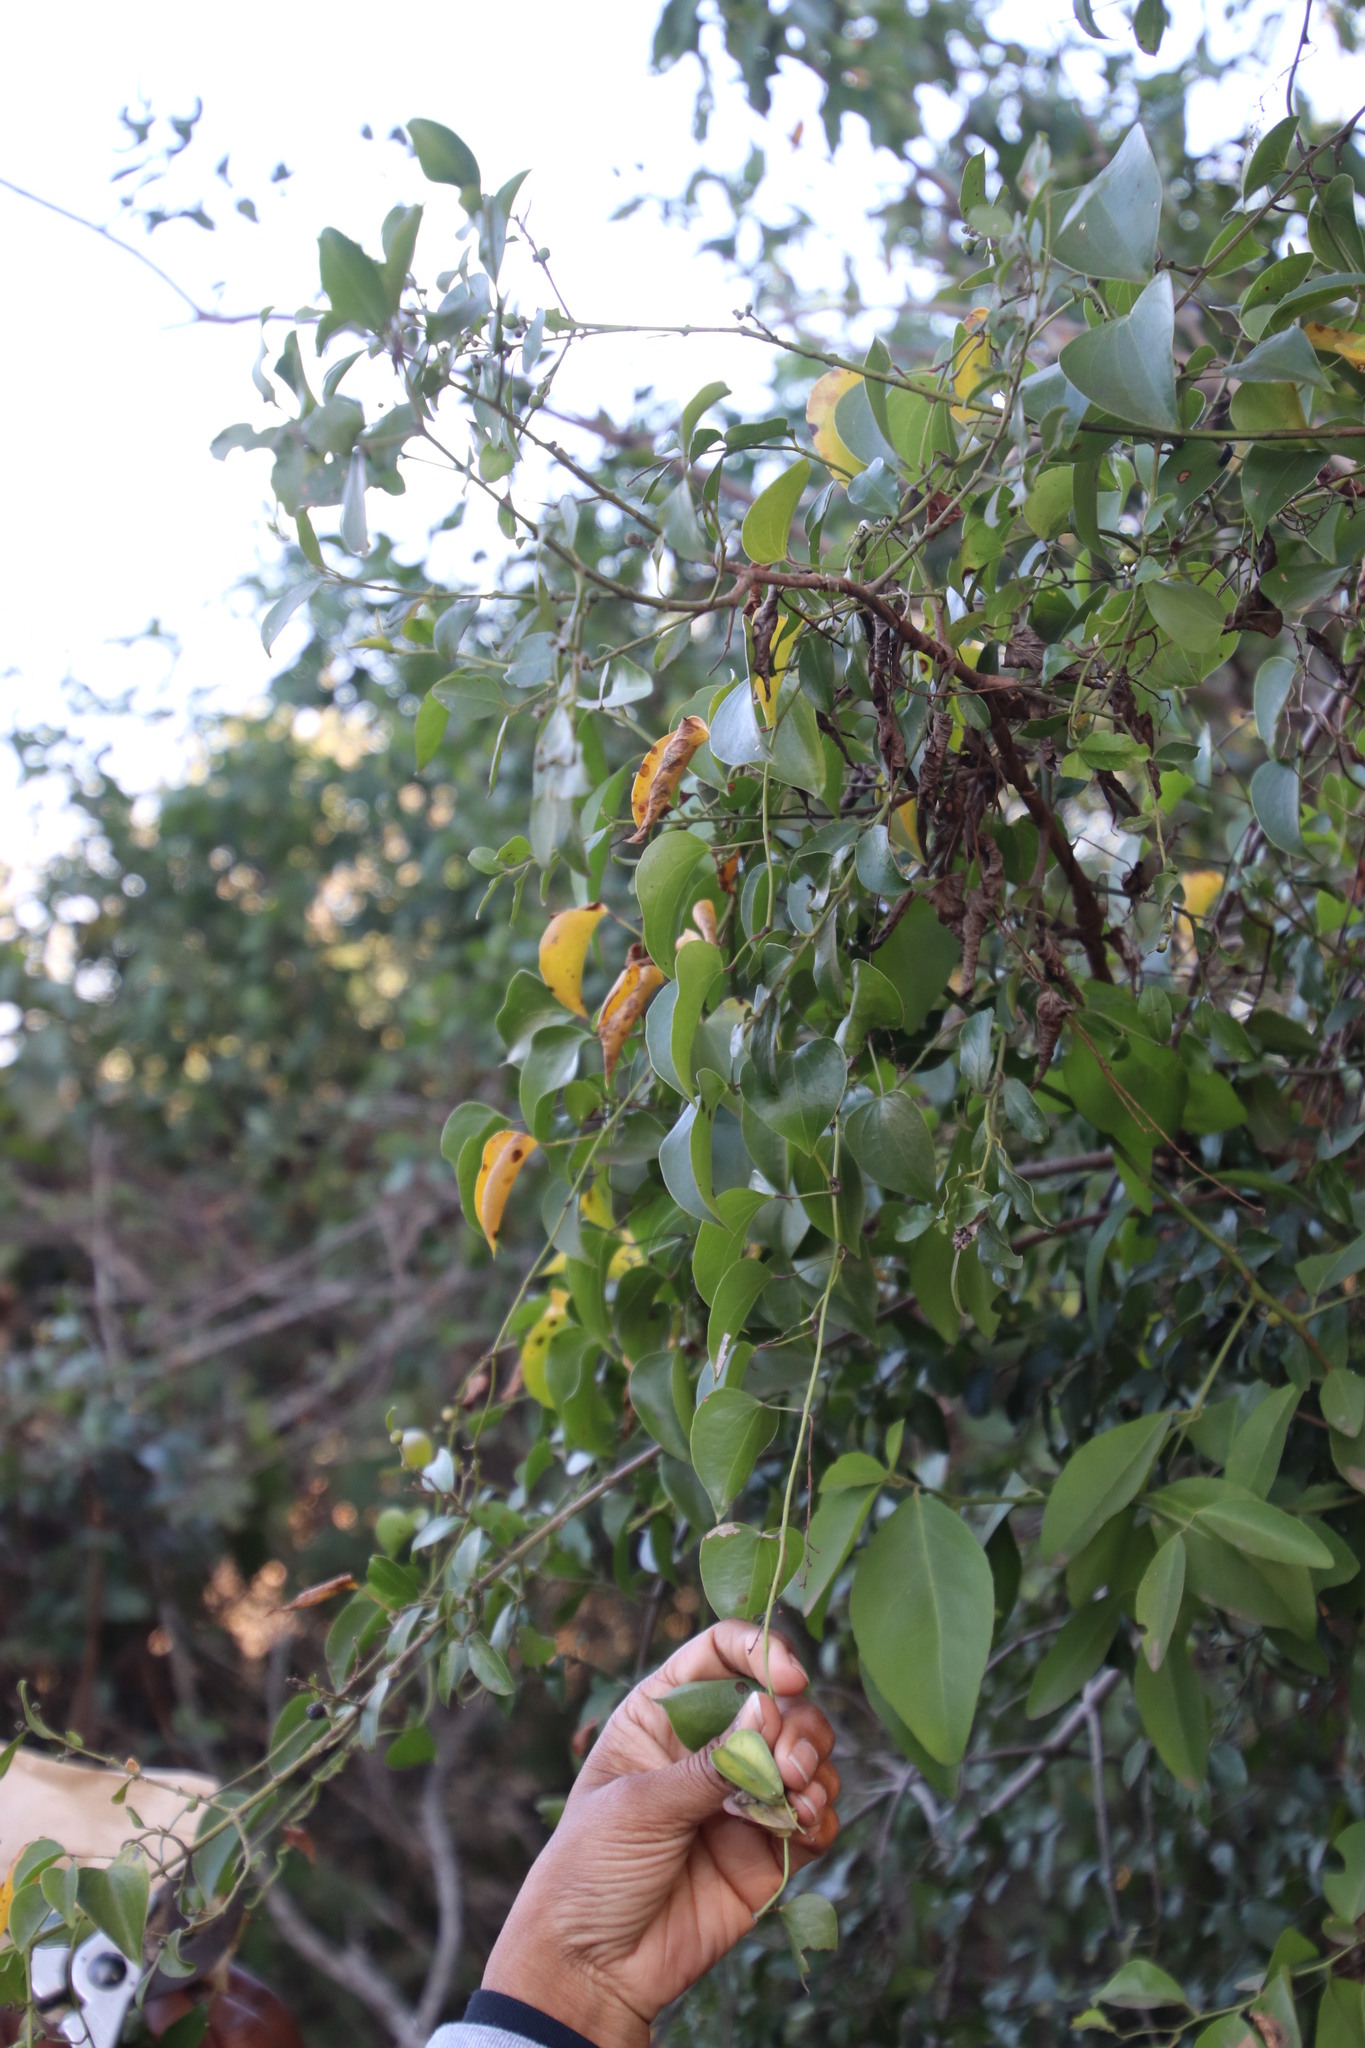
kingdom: Plantae
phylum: Tracheophyta
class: Liliopsida
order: Dioscoreales
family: Dioscoreaceae
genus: Dioscorea
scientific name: Dioscorea cotinifolia
